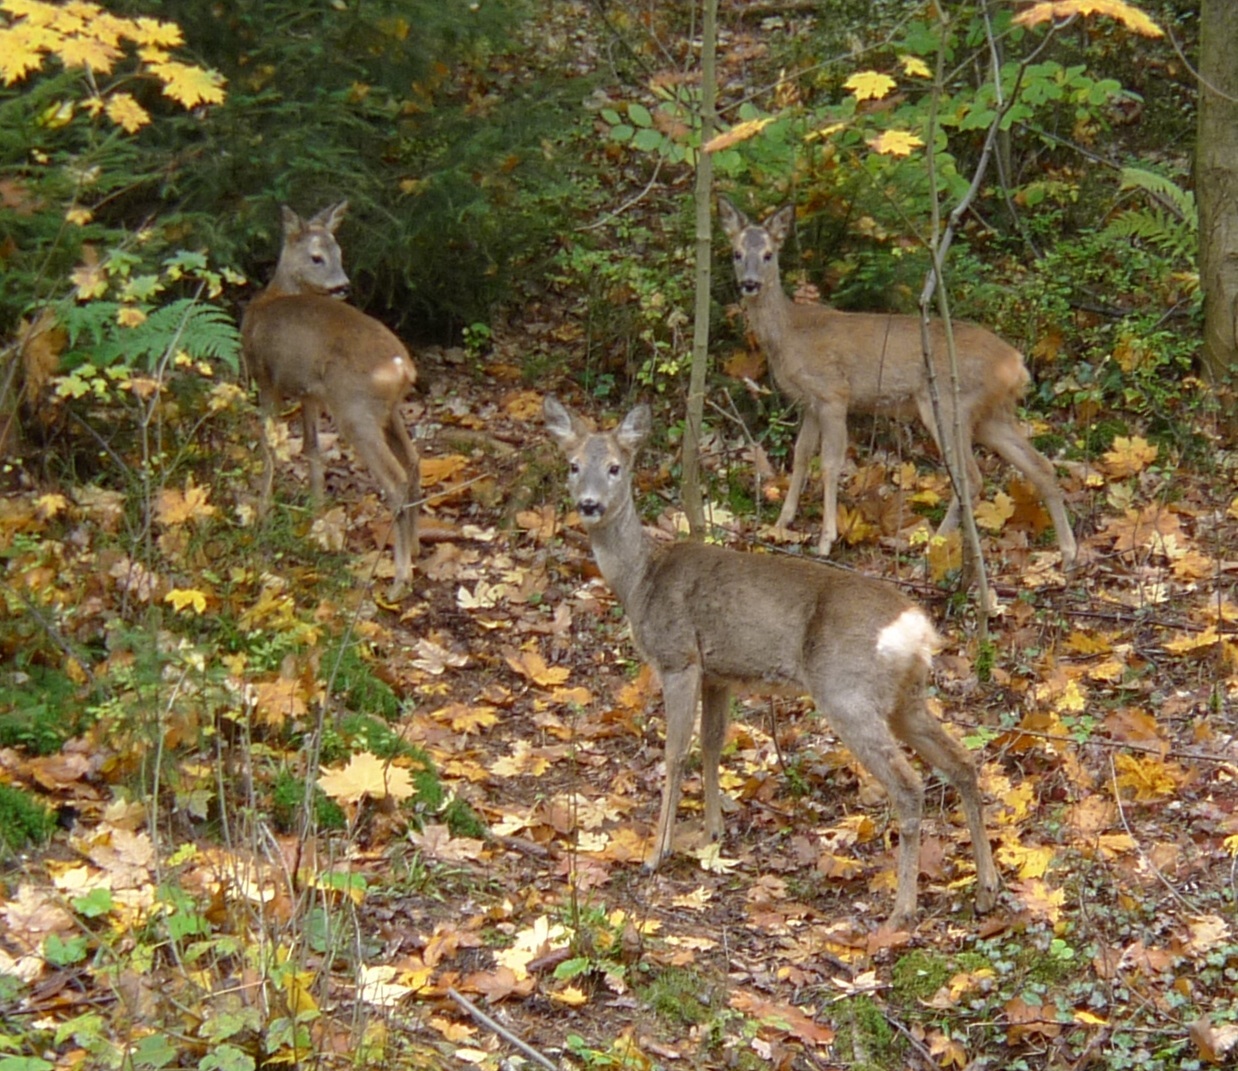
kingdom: Animalia
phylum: Chordata
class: Mammalia
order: Artiodactyla
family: Cervidae
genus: Capreolus
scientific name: Capreolus capreolus
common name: Western roe deer
